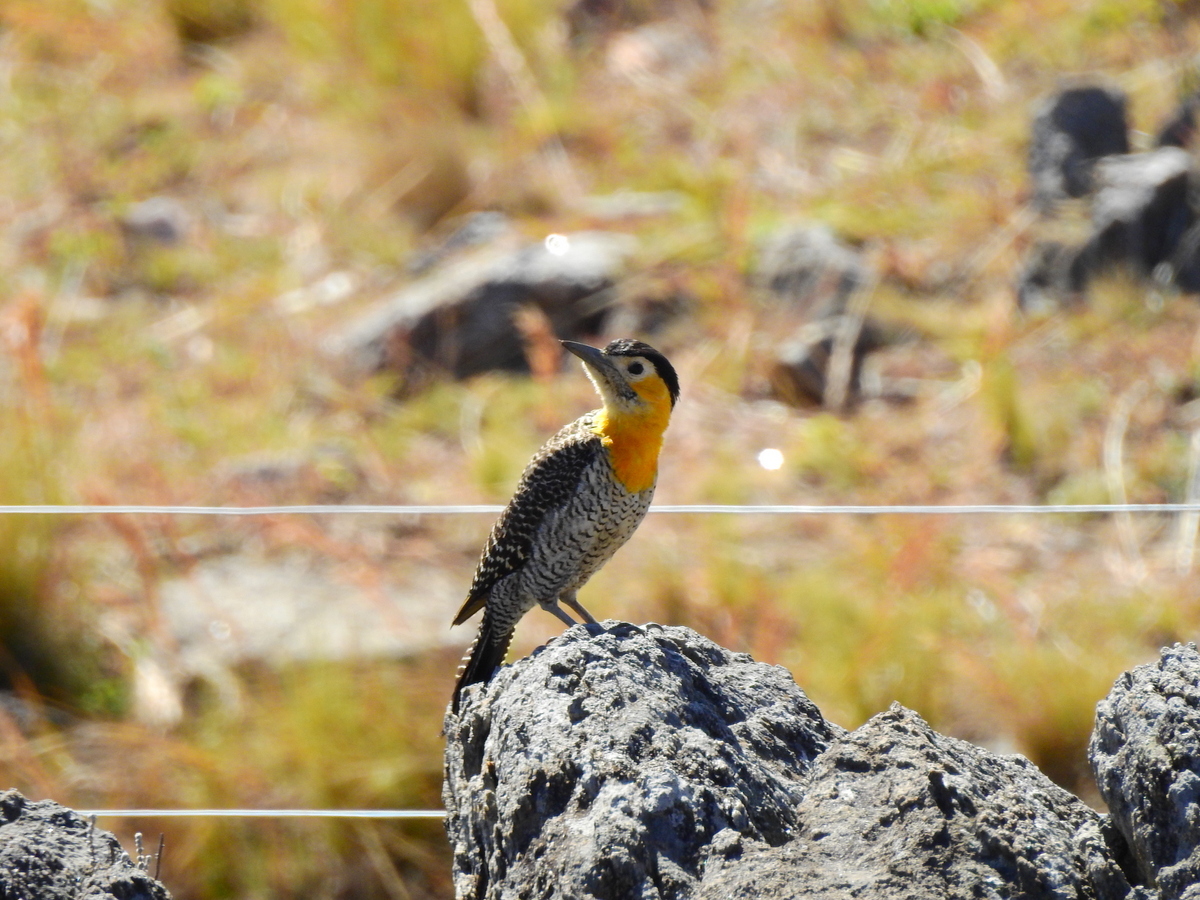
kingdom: Animalia
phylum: Chordata
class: Aves
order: Piciformes
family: Picidae
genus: Colaptes
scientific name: Colaptes campestris
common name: Campo flicker
